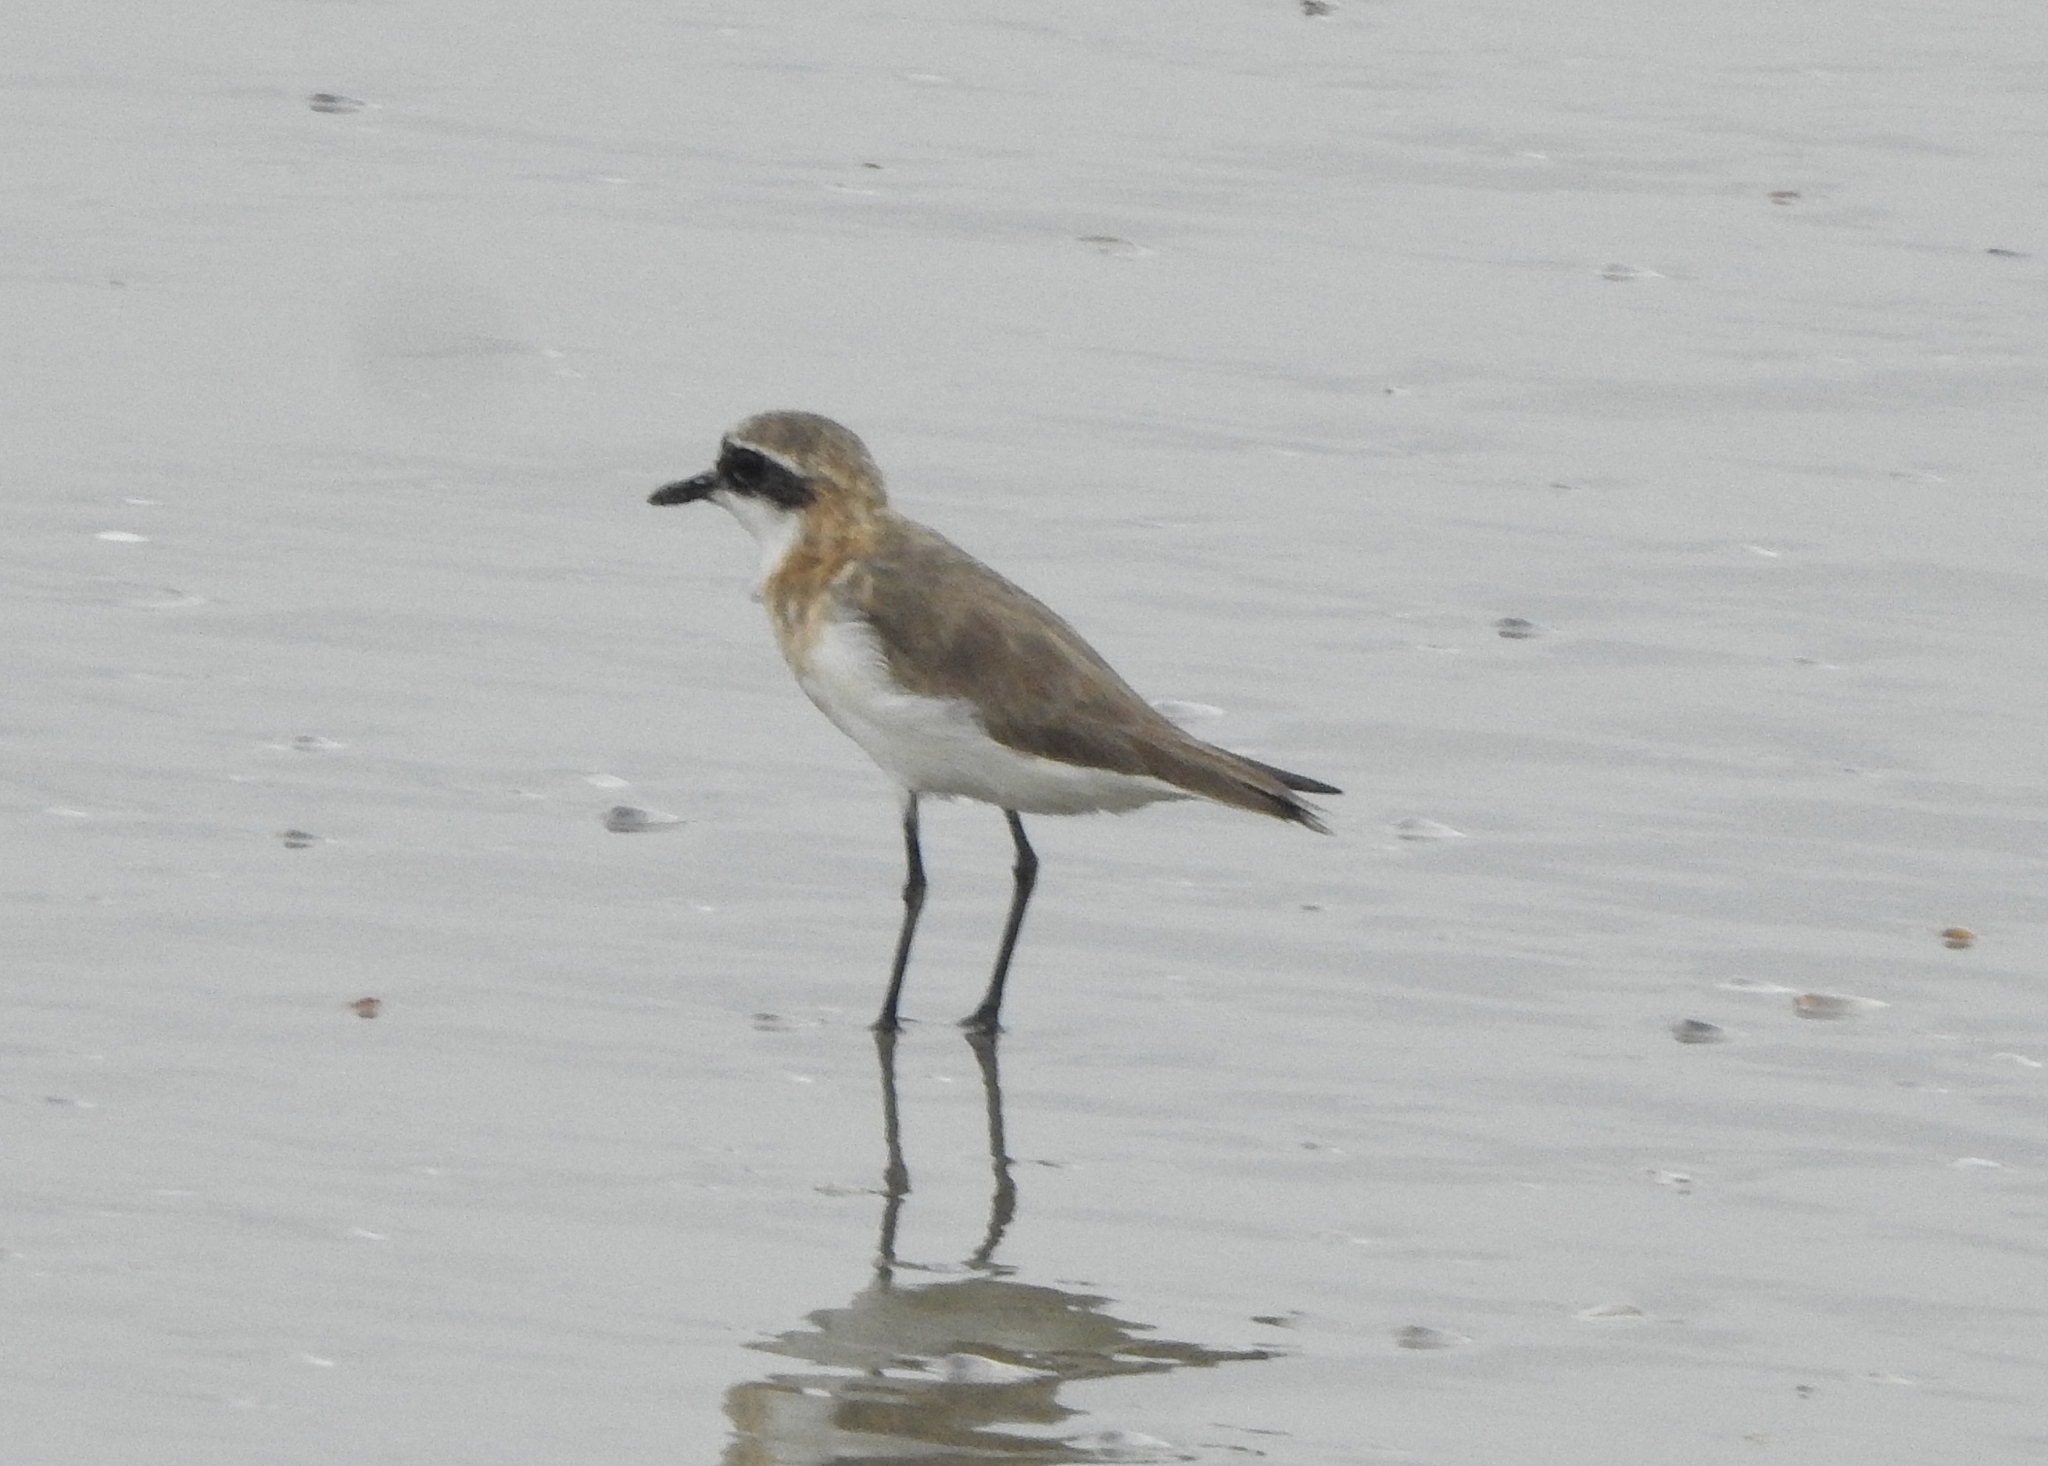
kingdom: Animalia
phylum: Chordata
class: Aves
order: Charadriiformes
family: Charadriidae
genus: Anarhynchus
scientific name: Anarhynchus
